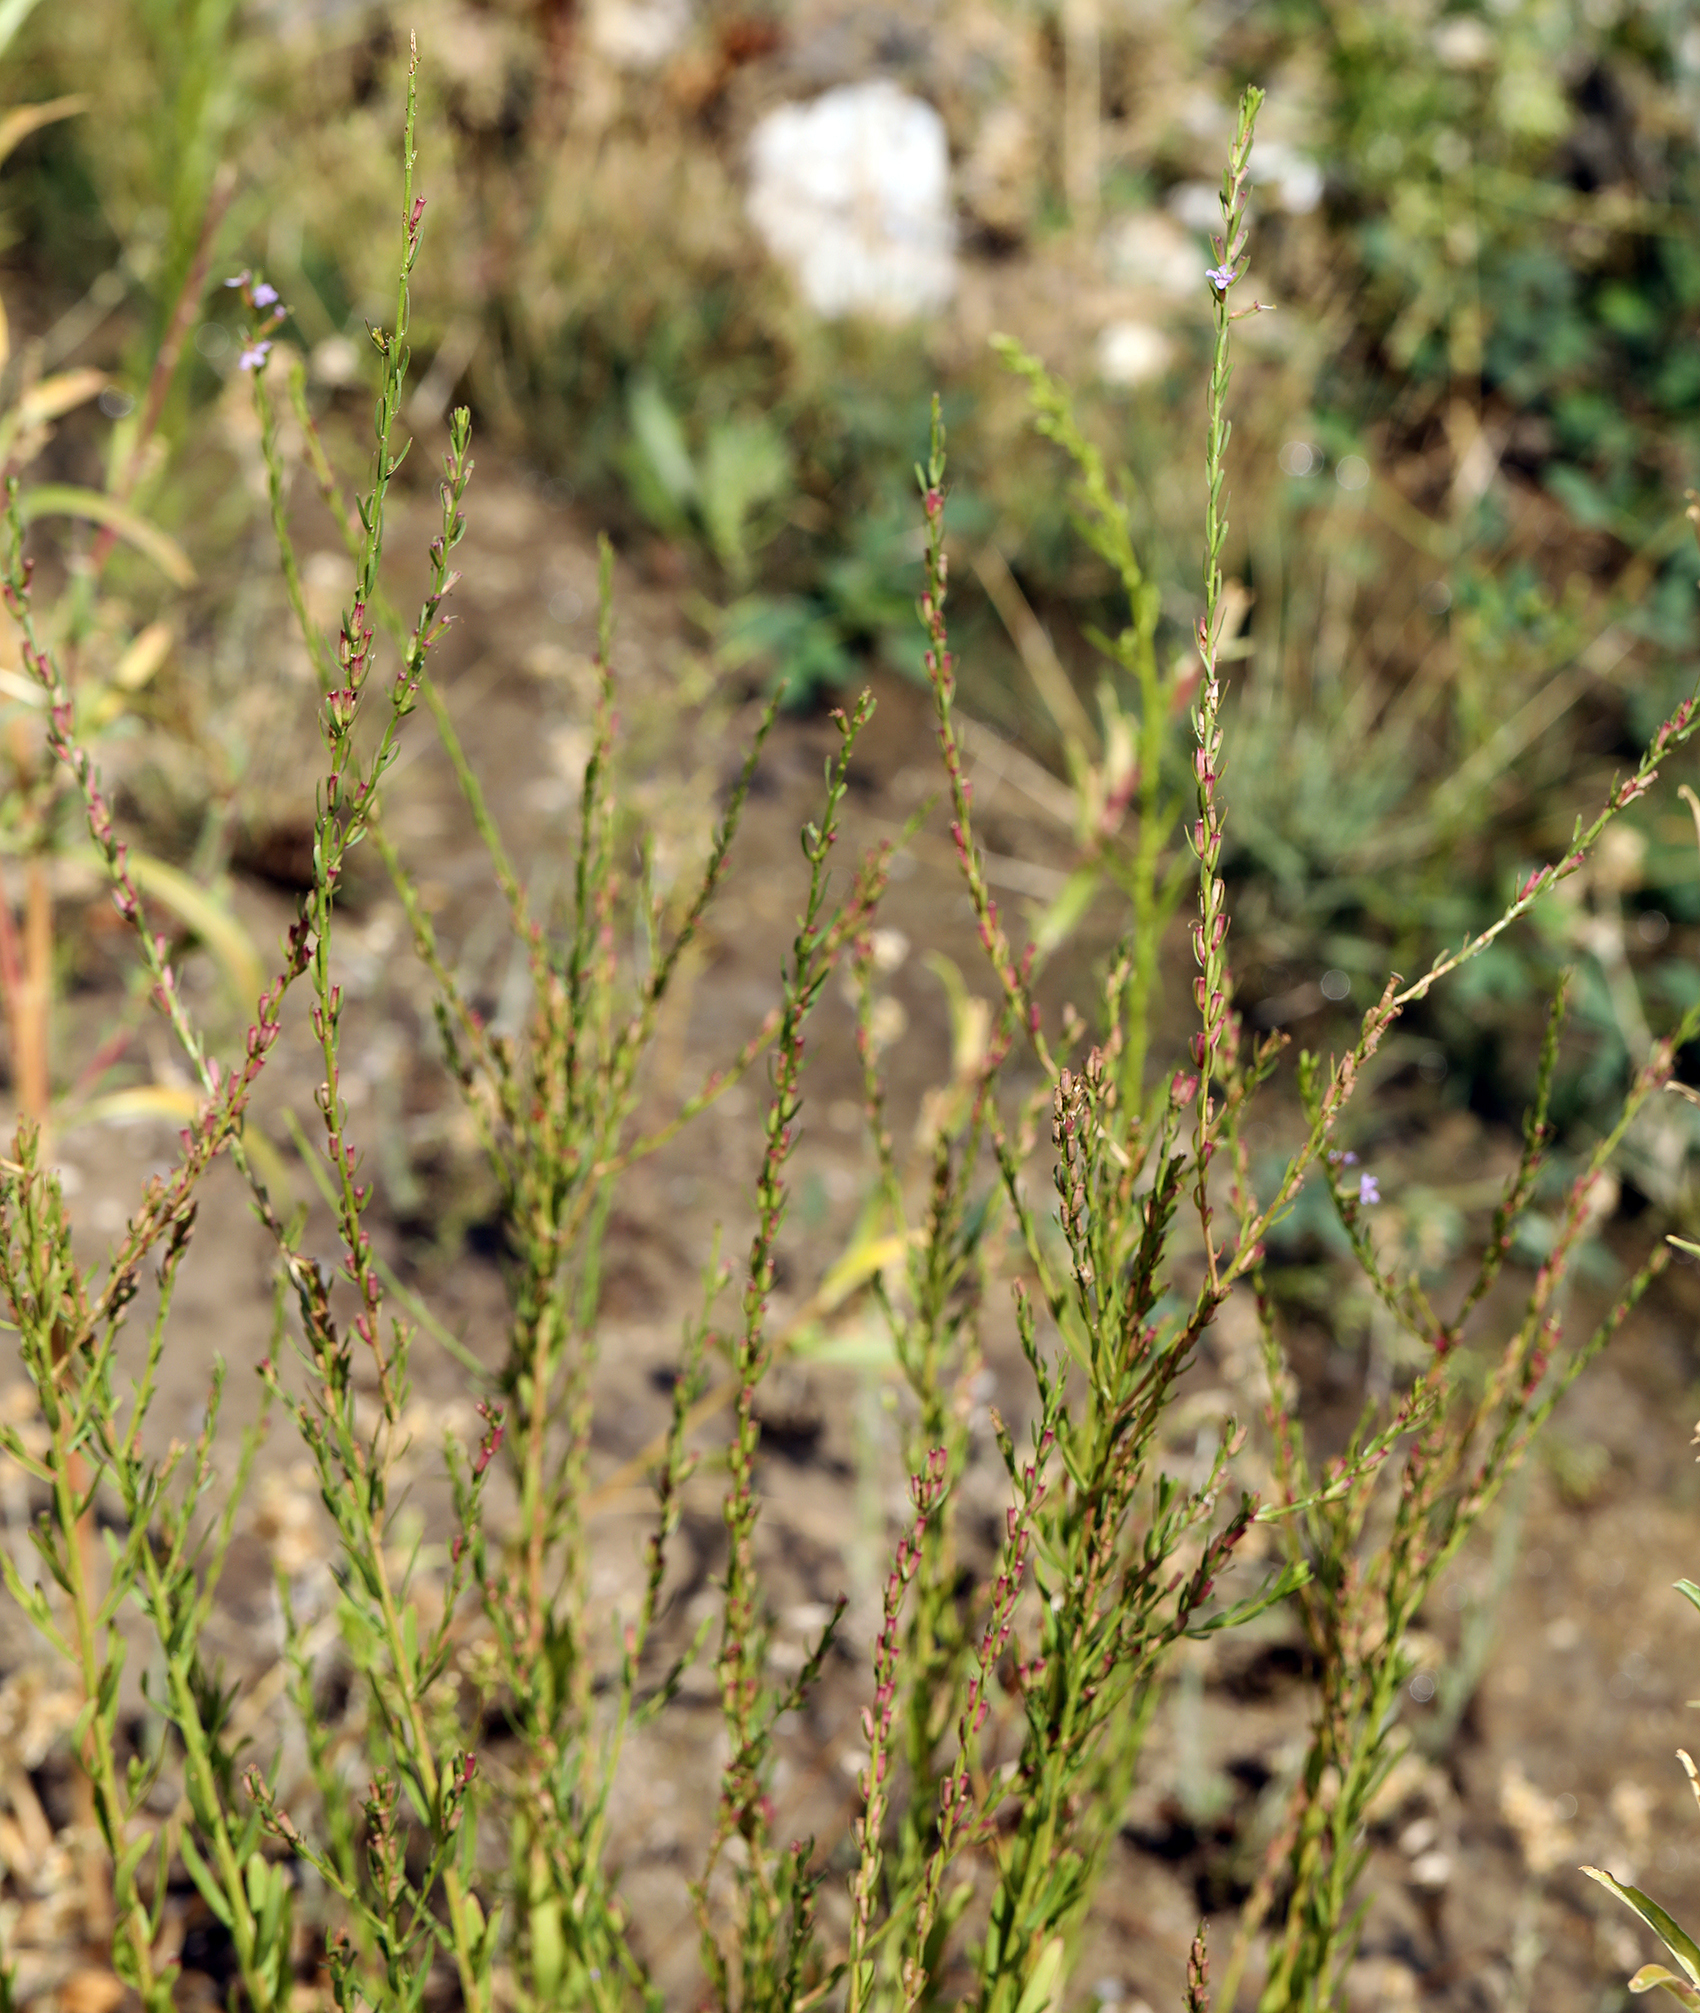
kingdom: Plantae
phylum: Tracheophyta
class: Magnoliopsida
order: Myrtales
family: Lythraceae
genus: Lythrum
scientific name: Lythrum californicum
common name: California loosestrife
